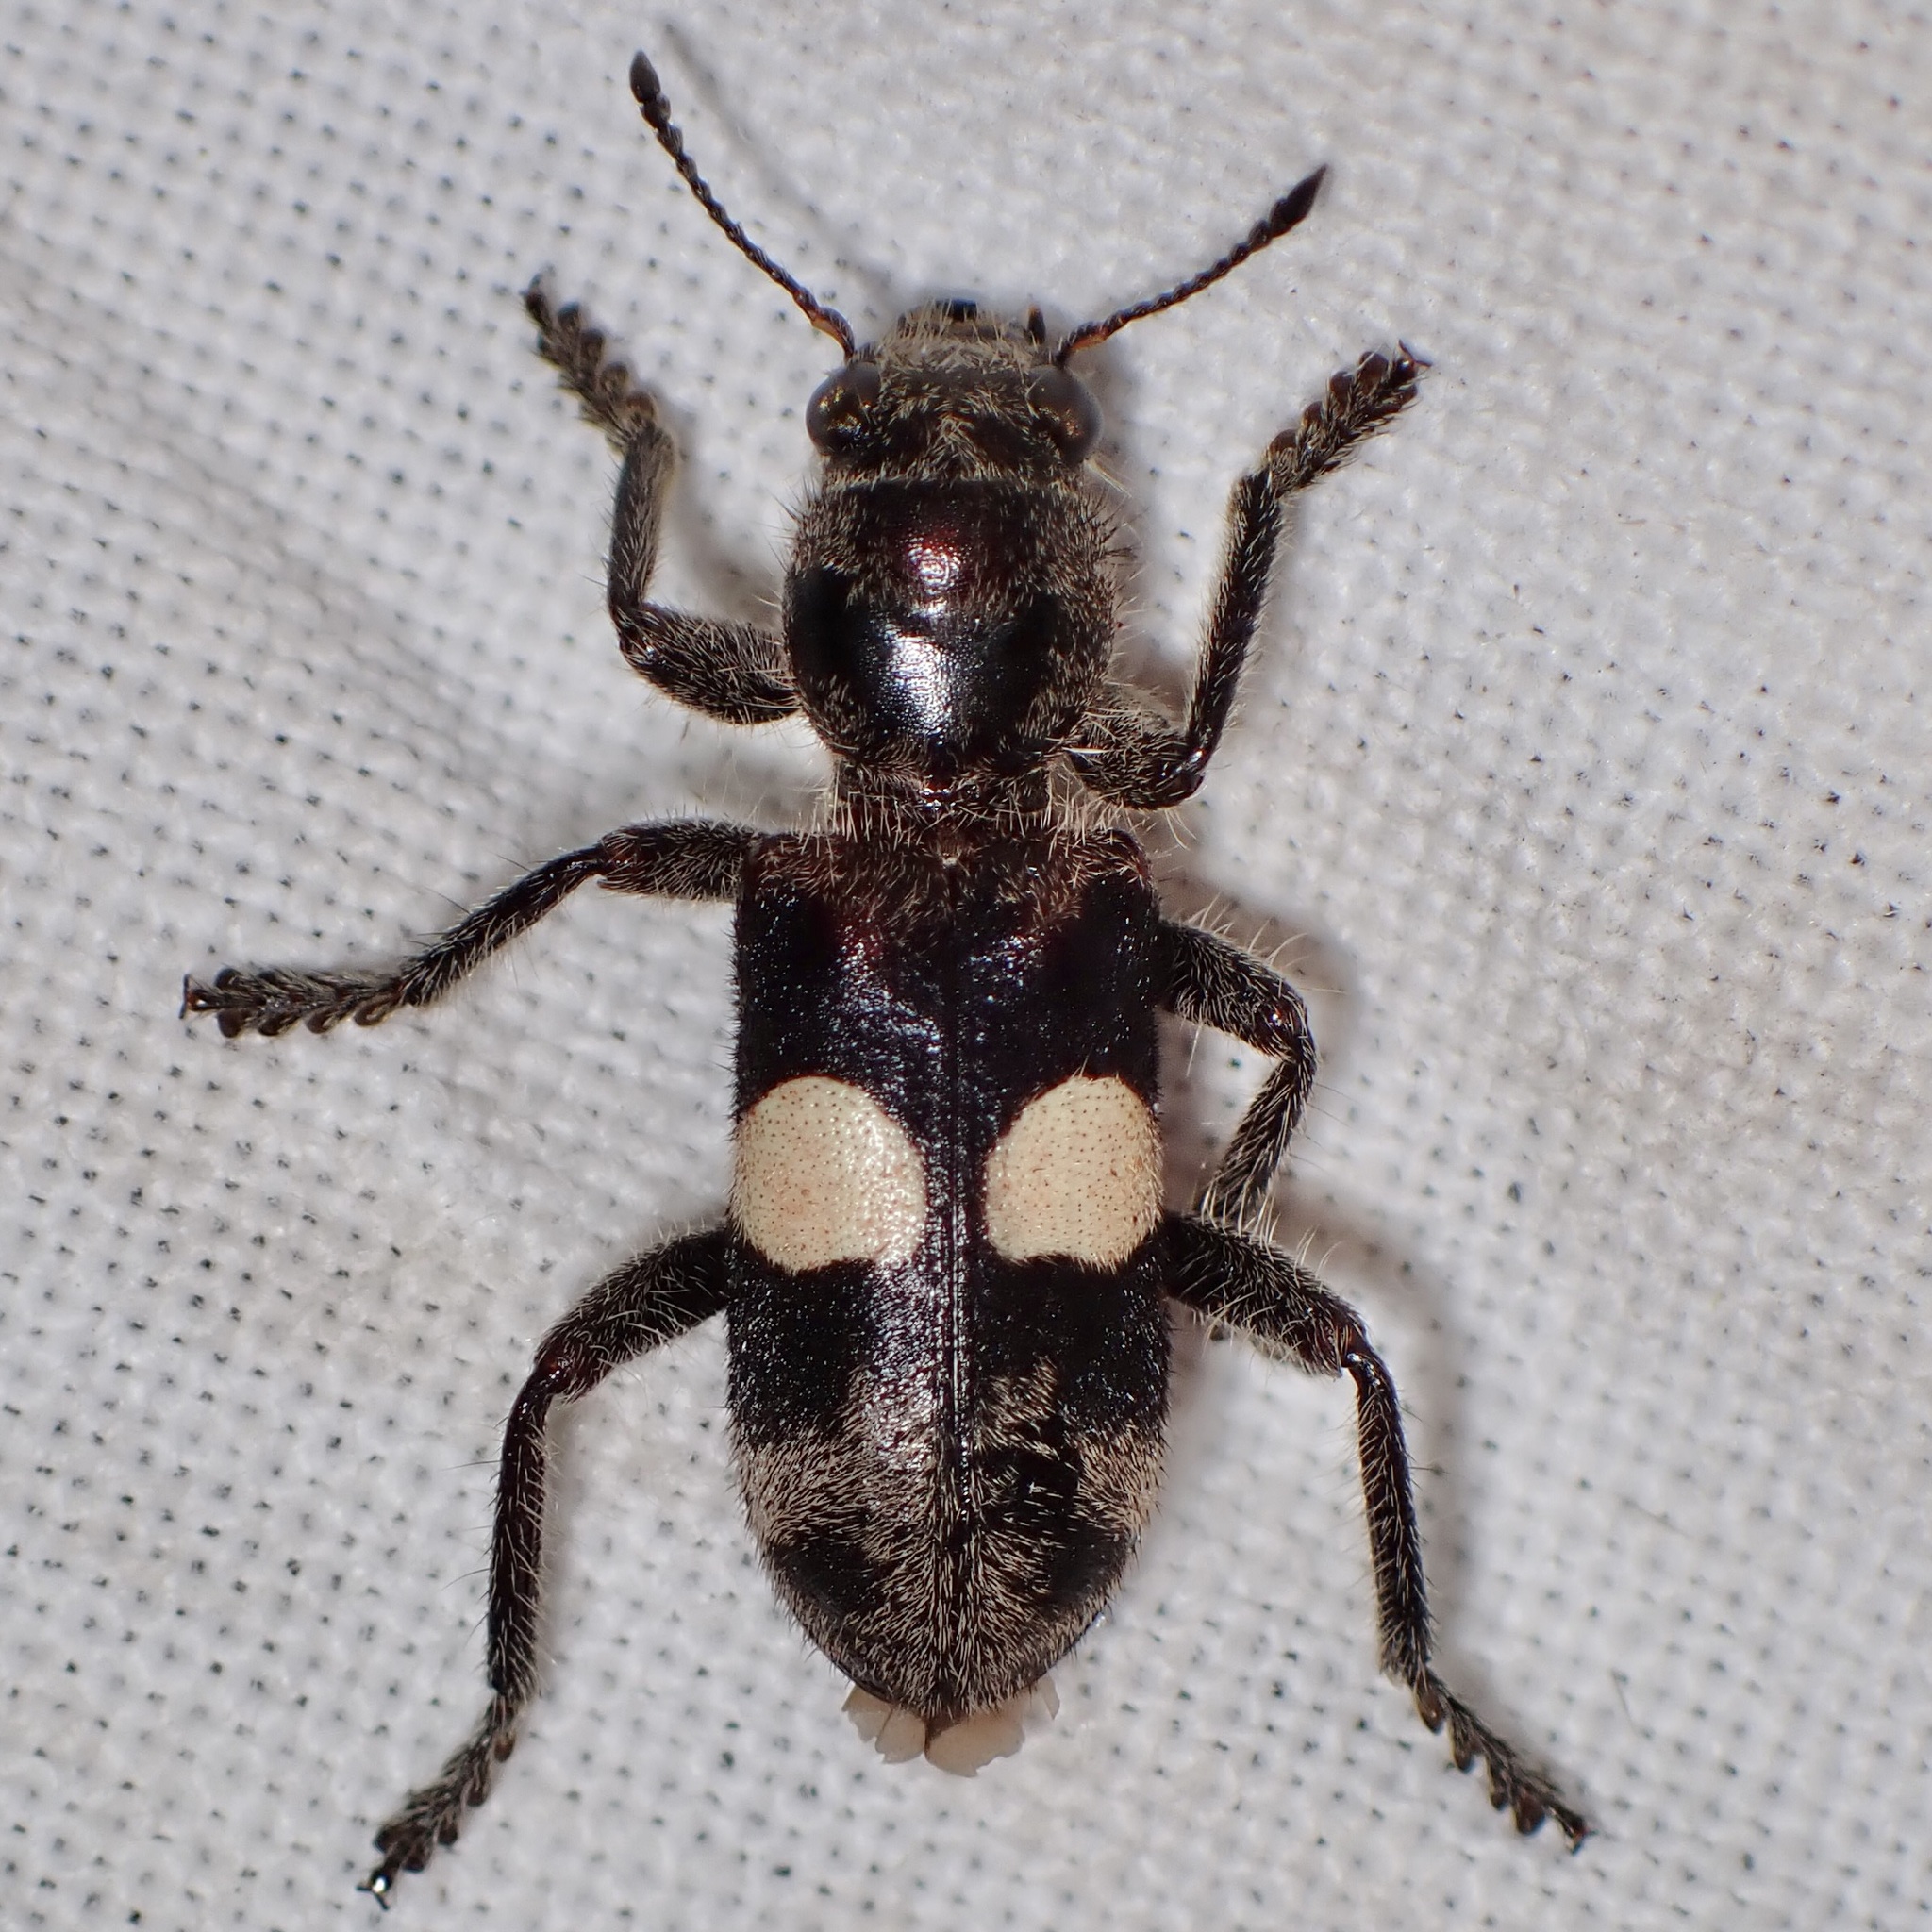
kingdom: Animalia
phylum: Arthropoda
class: Insecta
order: Coleoptera
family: Cleridae
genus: Enoclerus
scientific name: Enoclerus bimaculatus
